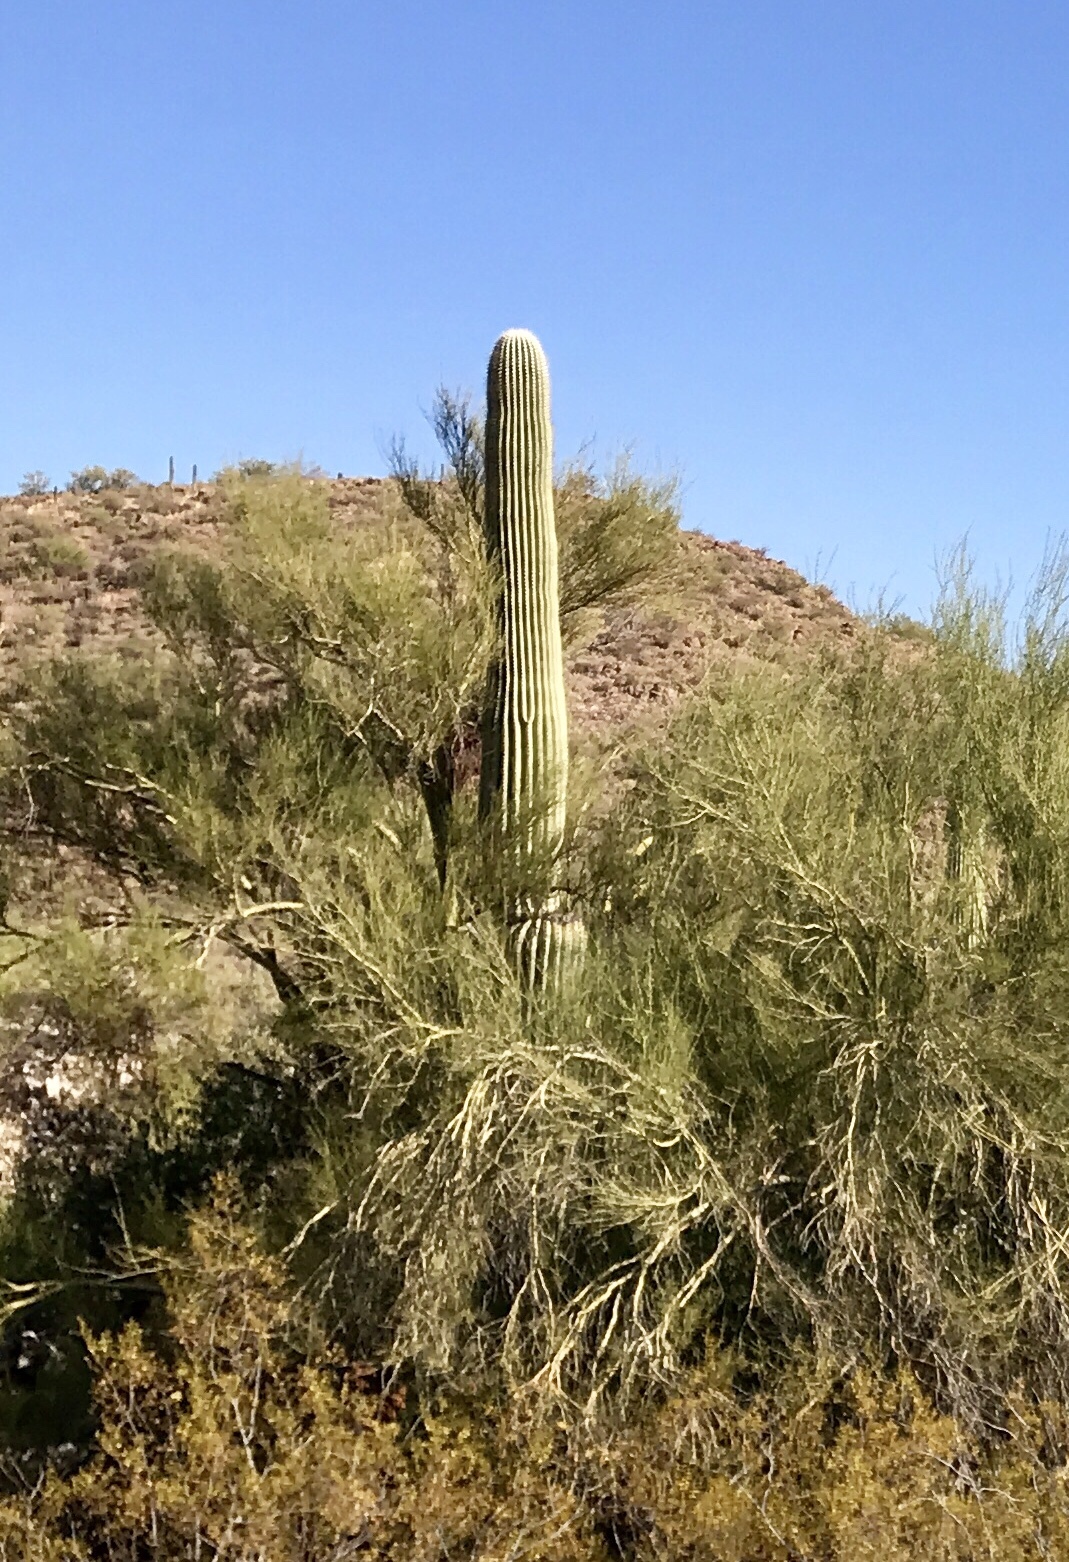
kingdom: Plantae
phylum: Tracheophyta
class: Magnoliopsida
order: Caryophyllales
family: Cactaceae
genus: Carnegiea
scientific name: Carnegiea gigantea
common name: Saguaro
